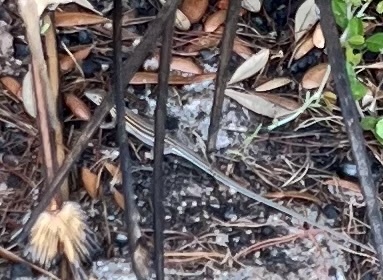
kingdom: Animalia
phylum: Chordata
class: Squamata
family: Teiidae
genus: Aspidoscelis
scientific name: Aspidoscelis sexlineatus
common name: Six-lined racerunner
